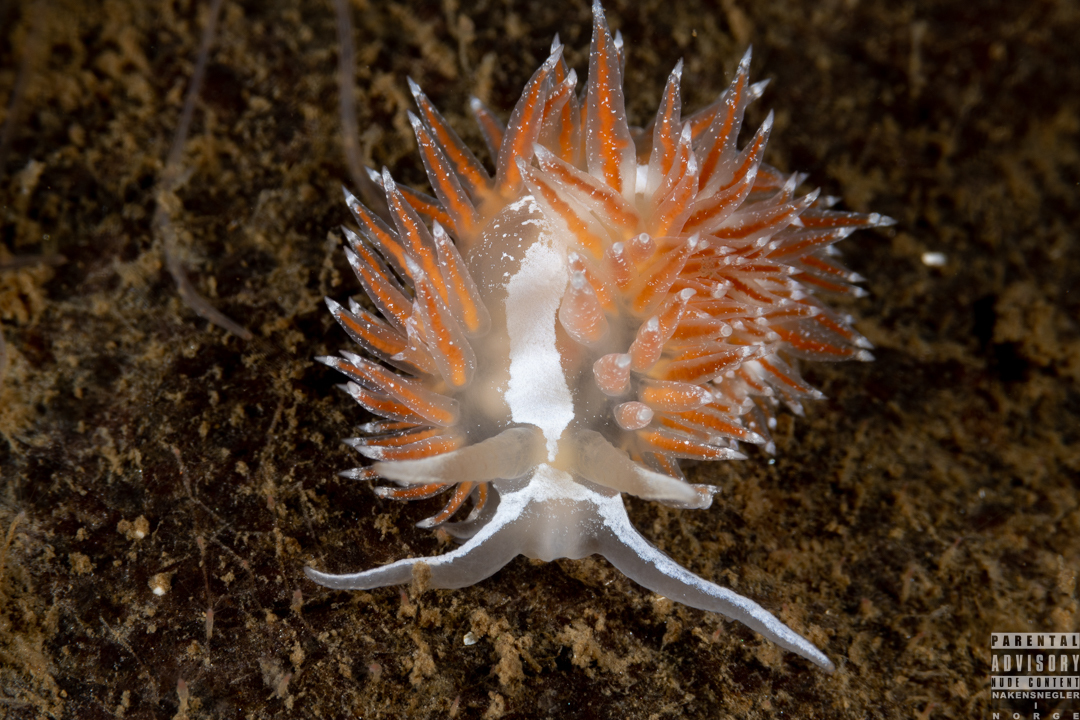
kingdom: Animalia
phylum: Mollusca
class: Gastropoda
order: Nudibranchia
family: Coryphellidae
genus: Coryphella
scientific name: Coryphella monicae
